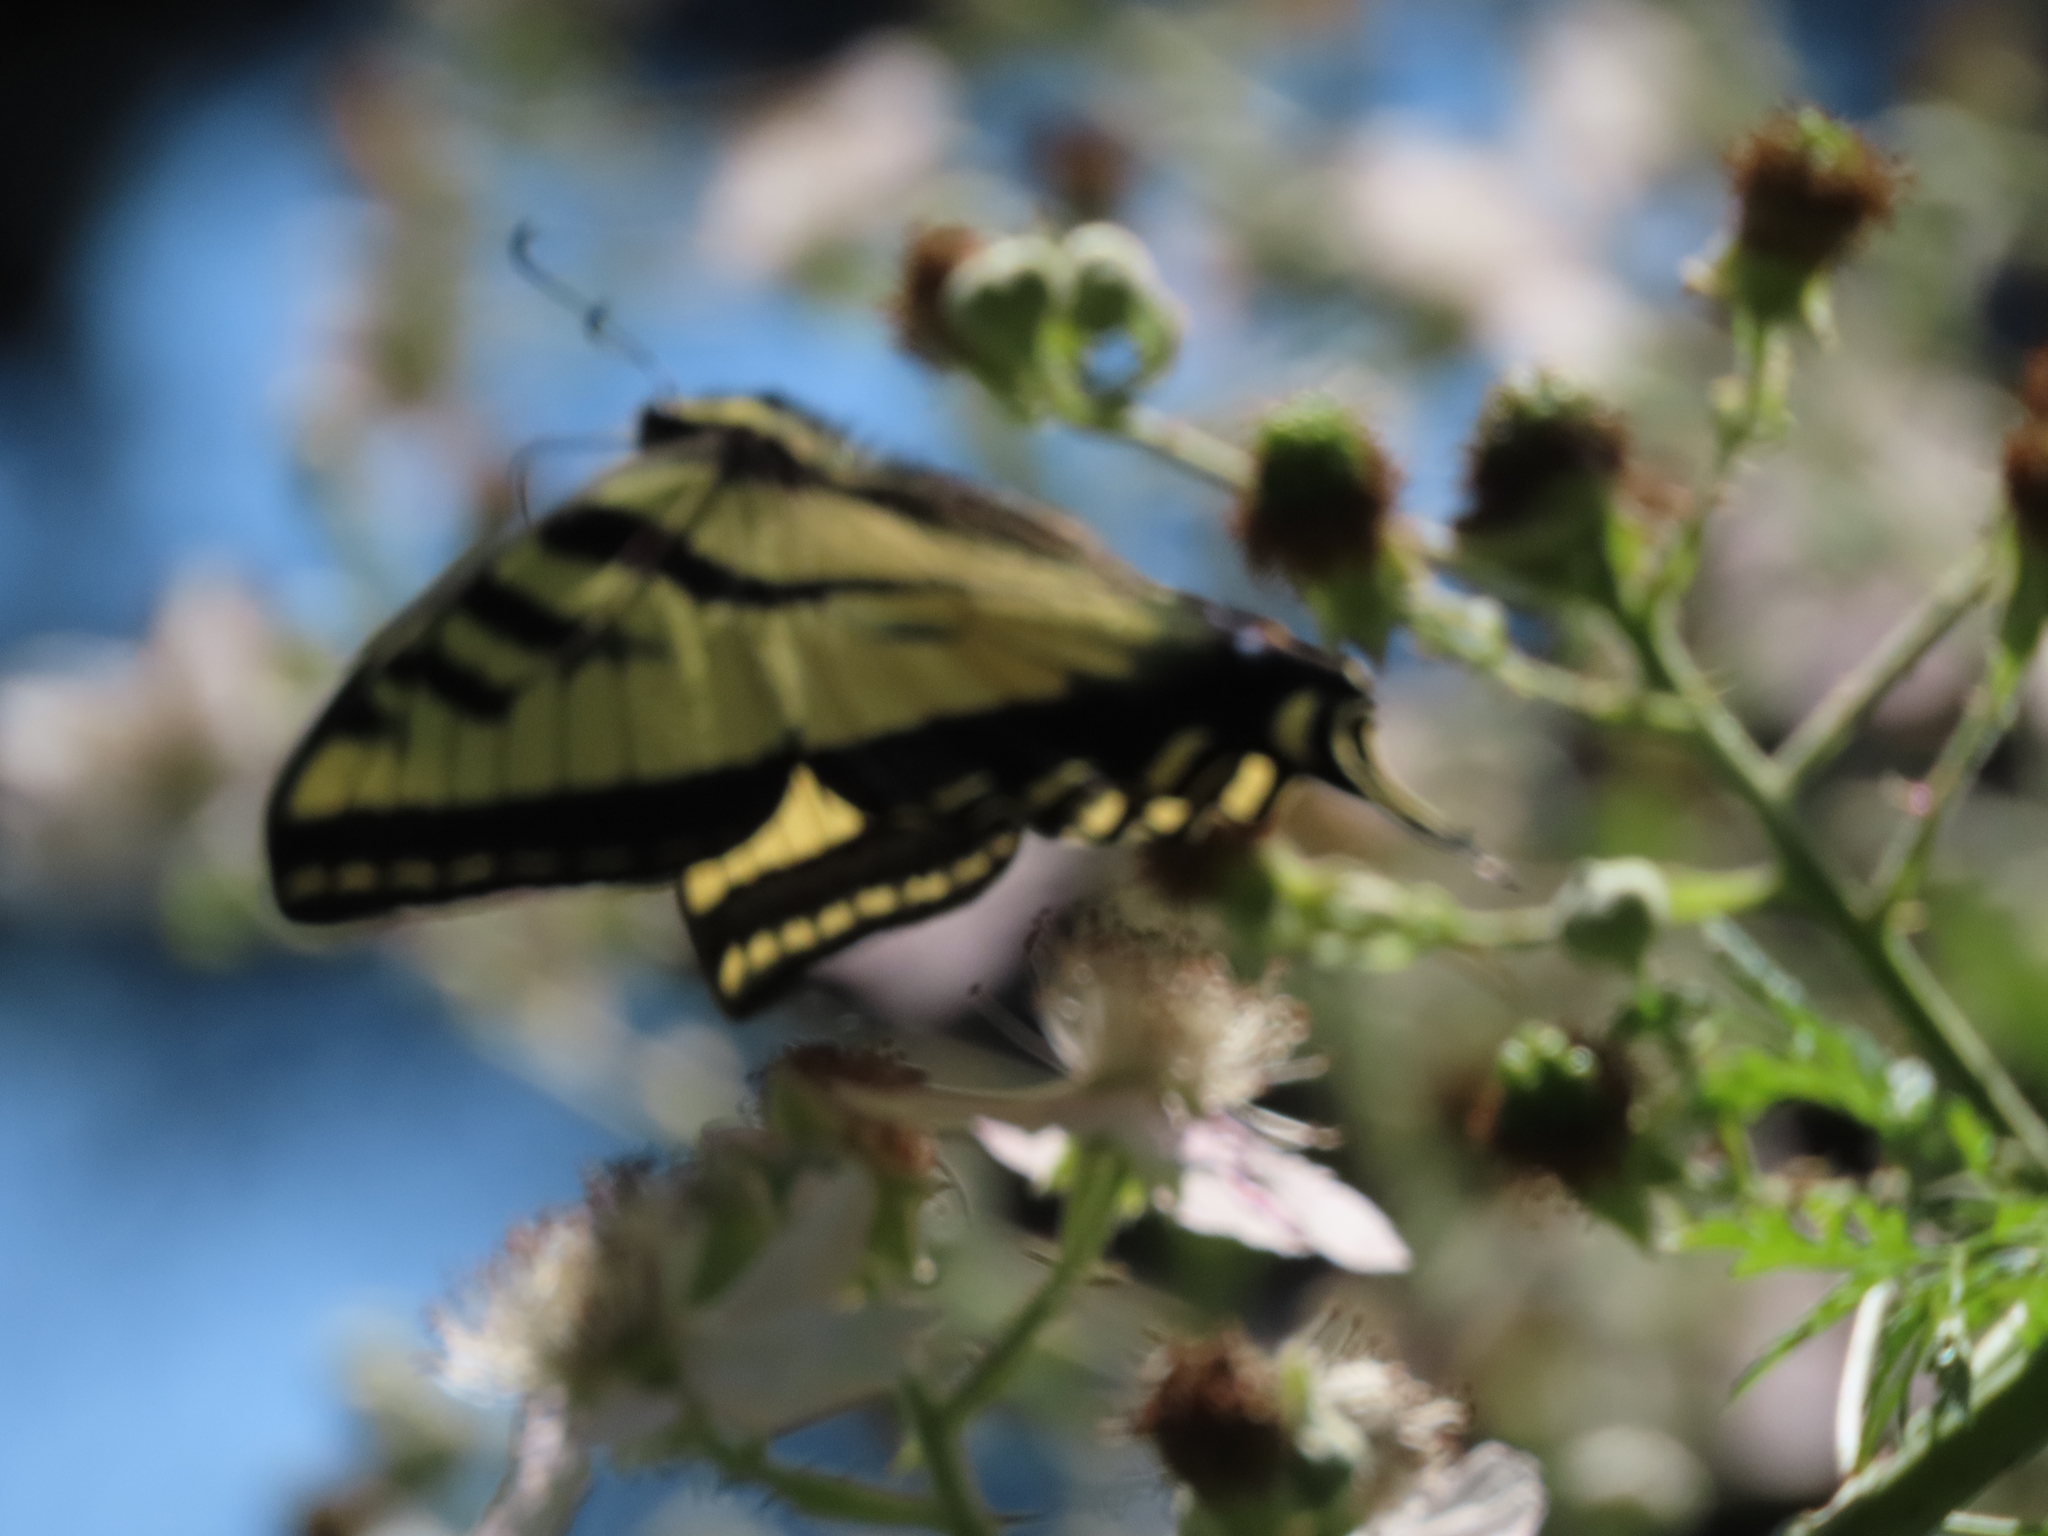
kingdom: Animalia
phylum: Arthropoda
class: Insecta
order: Lepidoptera
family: Papilionidae
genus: Papilio
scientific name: Papilio rutulus
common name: Western tiger swallowtail
